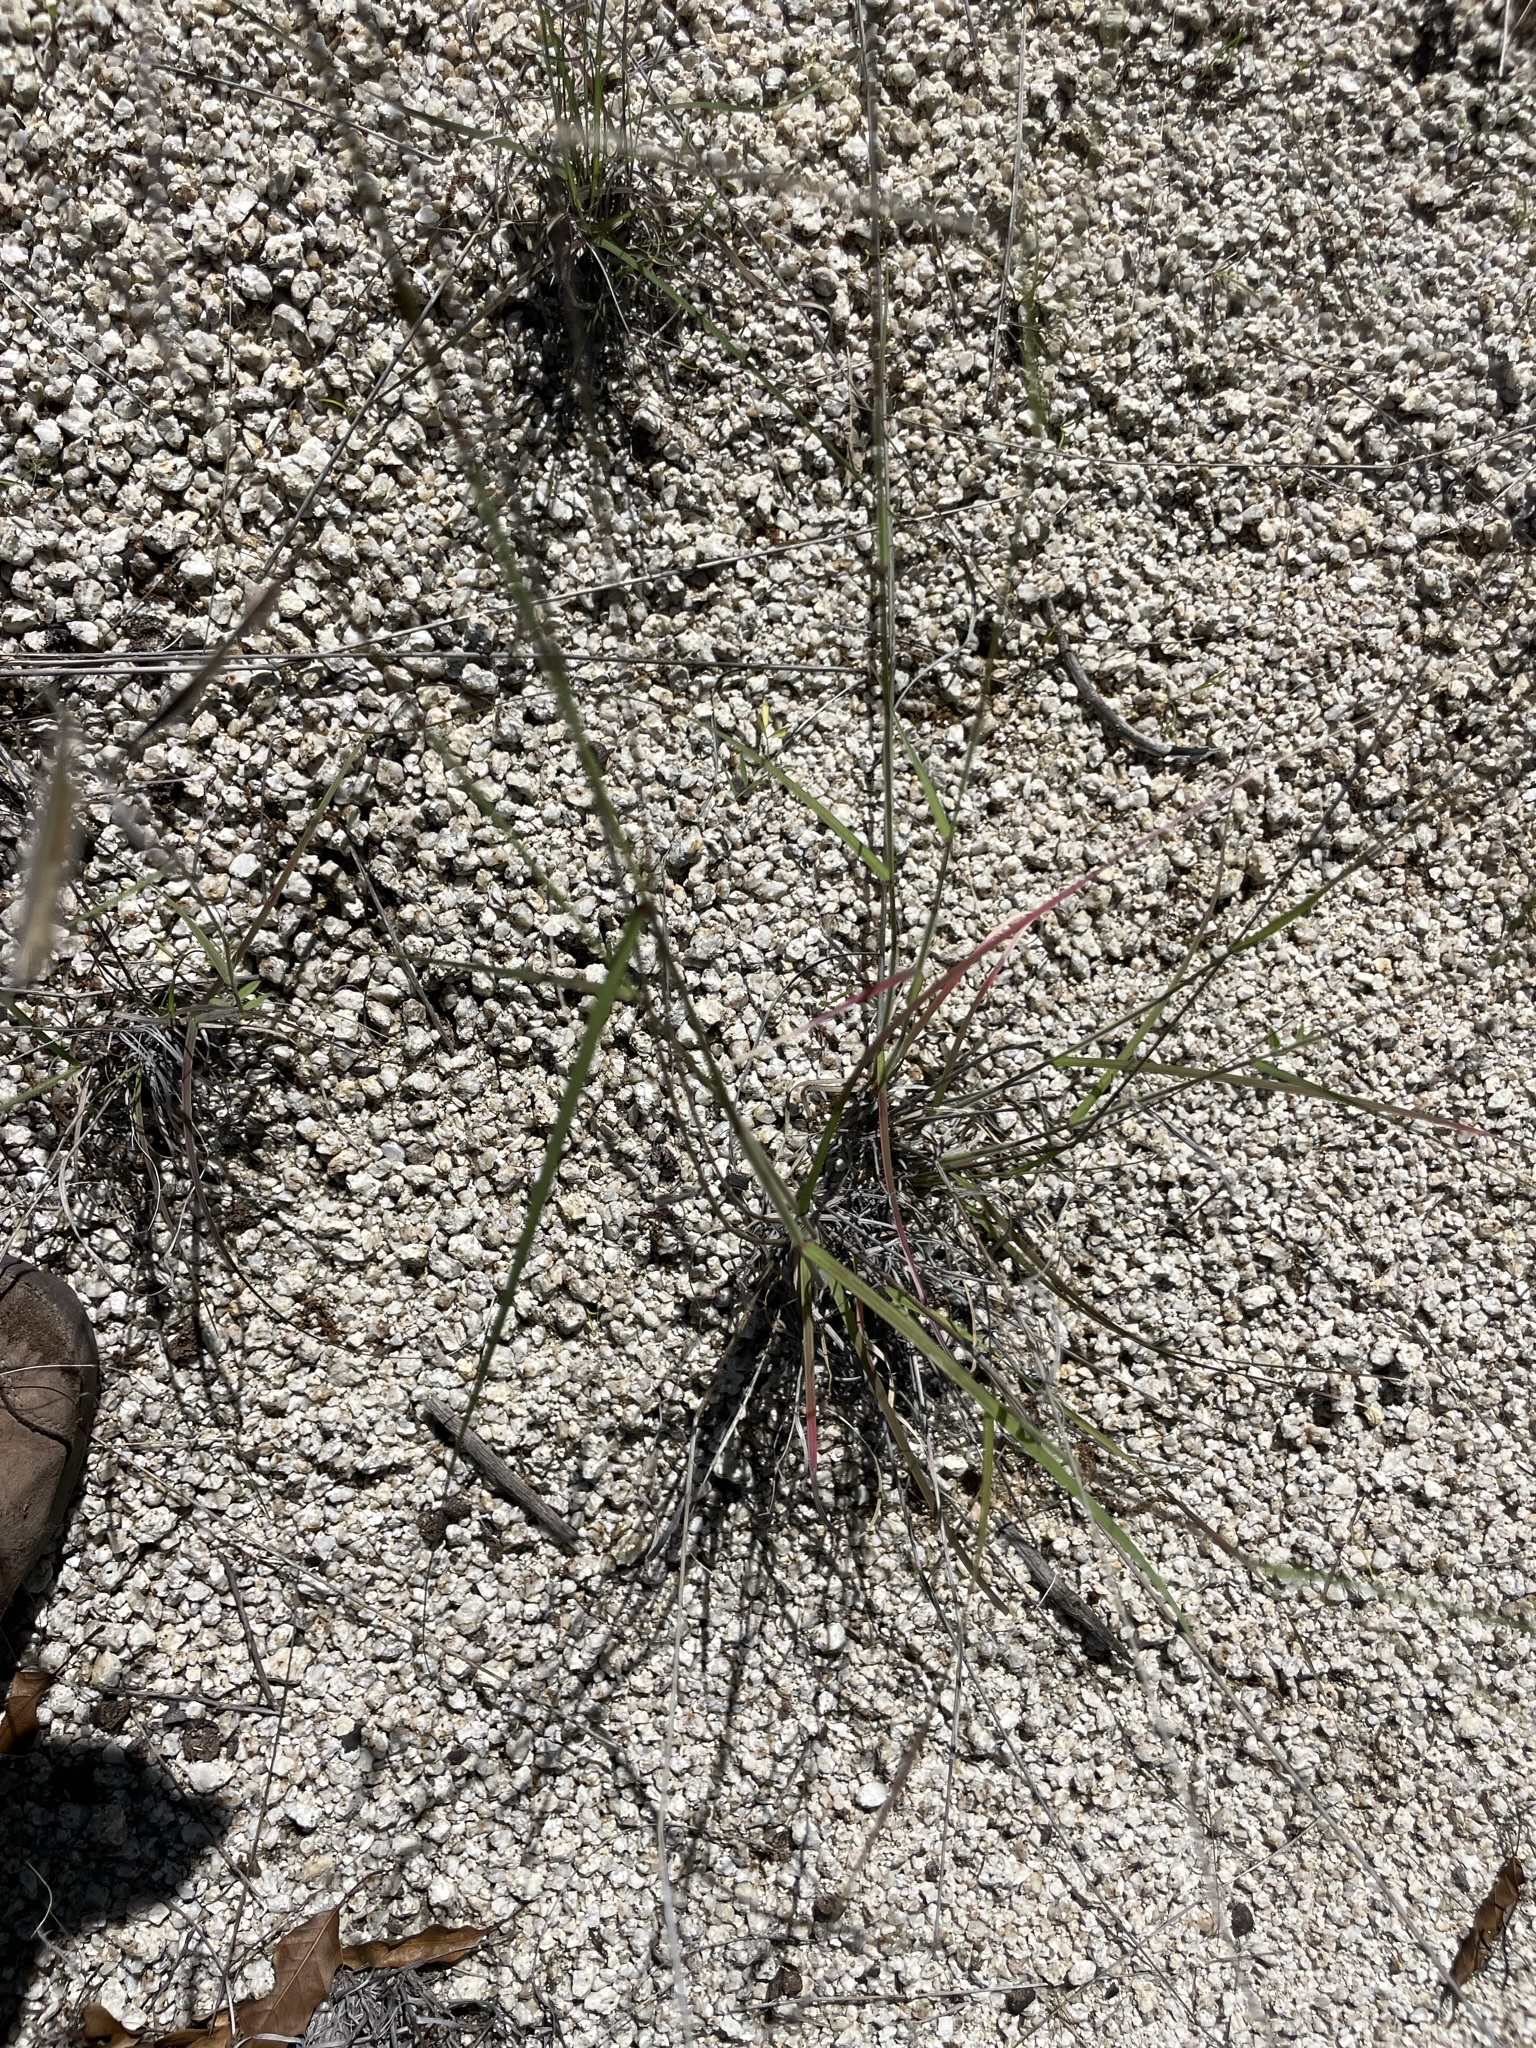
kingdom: Plantae
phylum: Tracheophyta
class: Liliopsida
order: Poales
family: Poaceae
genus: Bouteloua
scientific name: Bouteloua barbata
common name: Six-weeks grama
